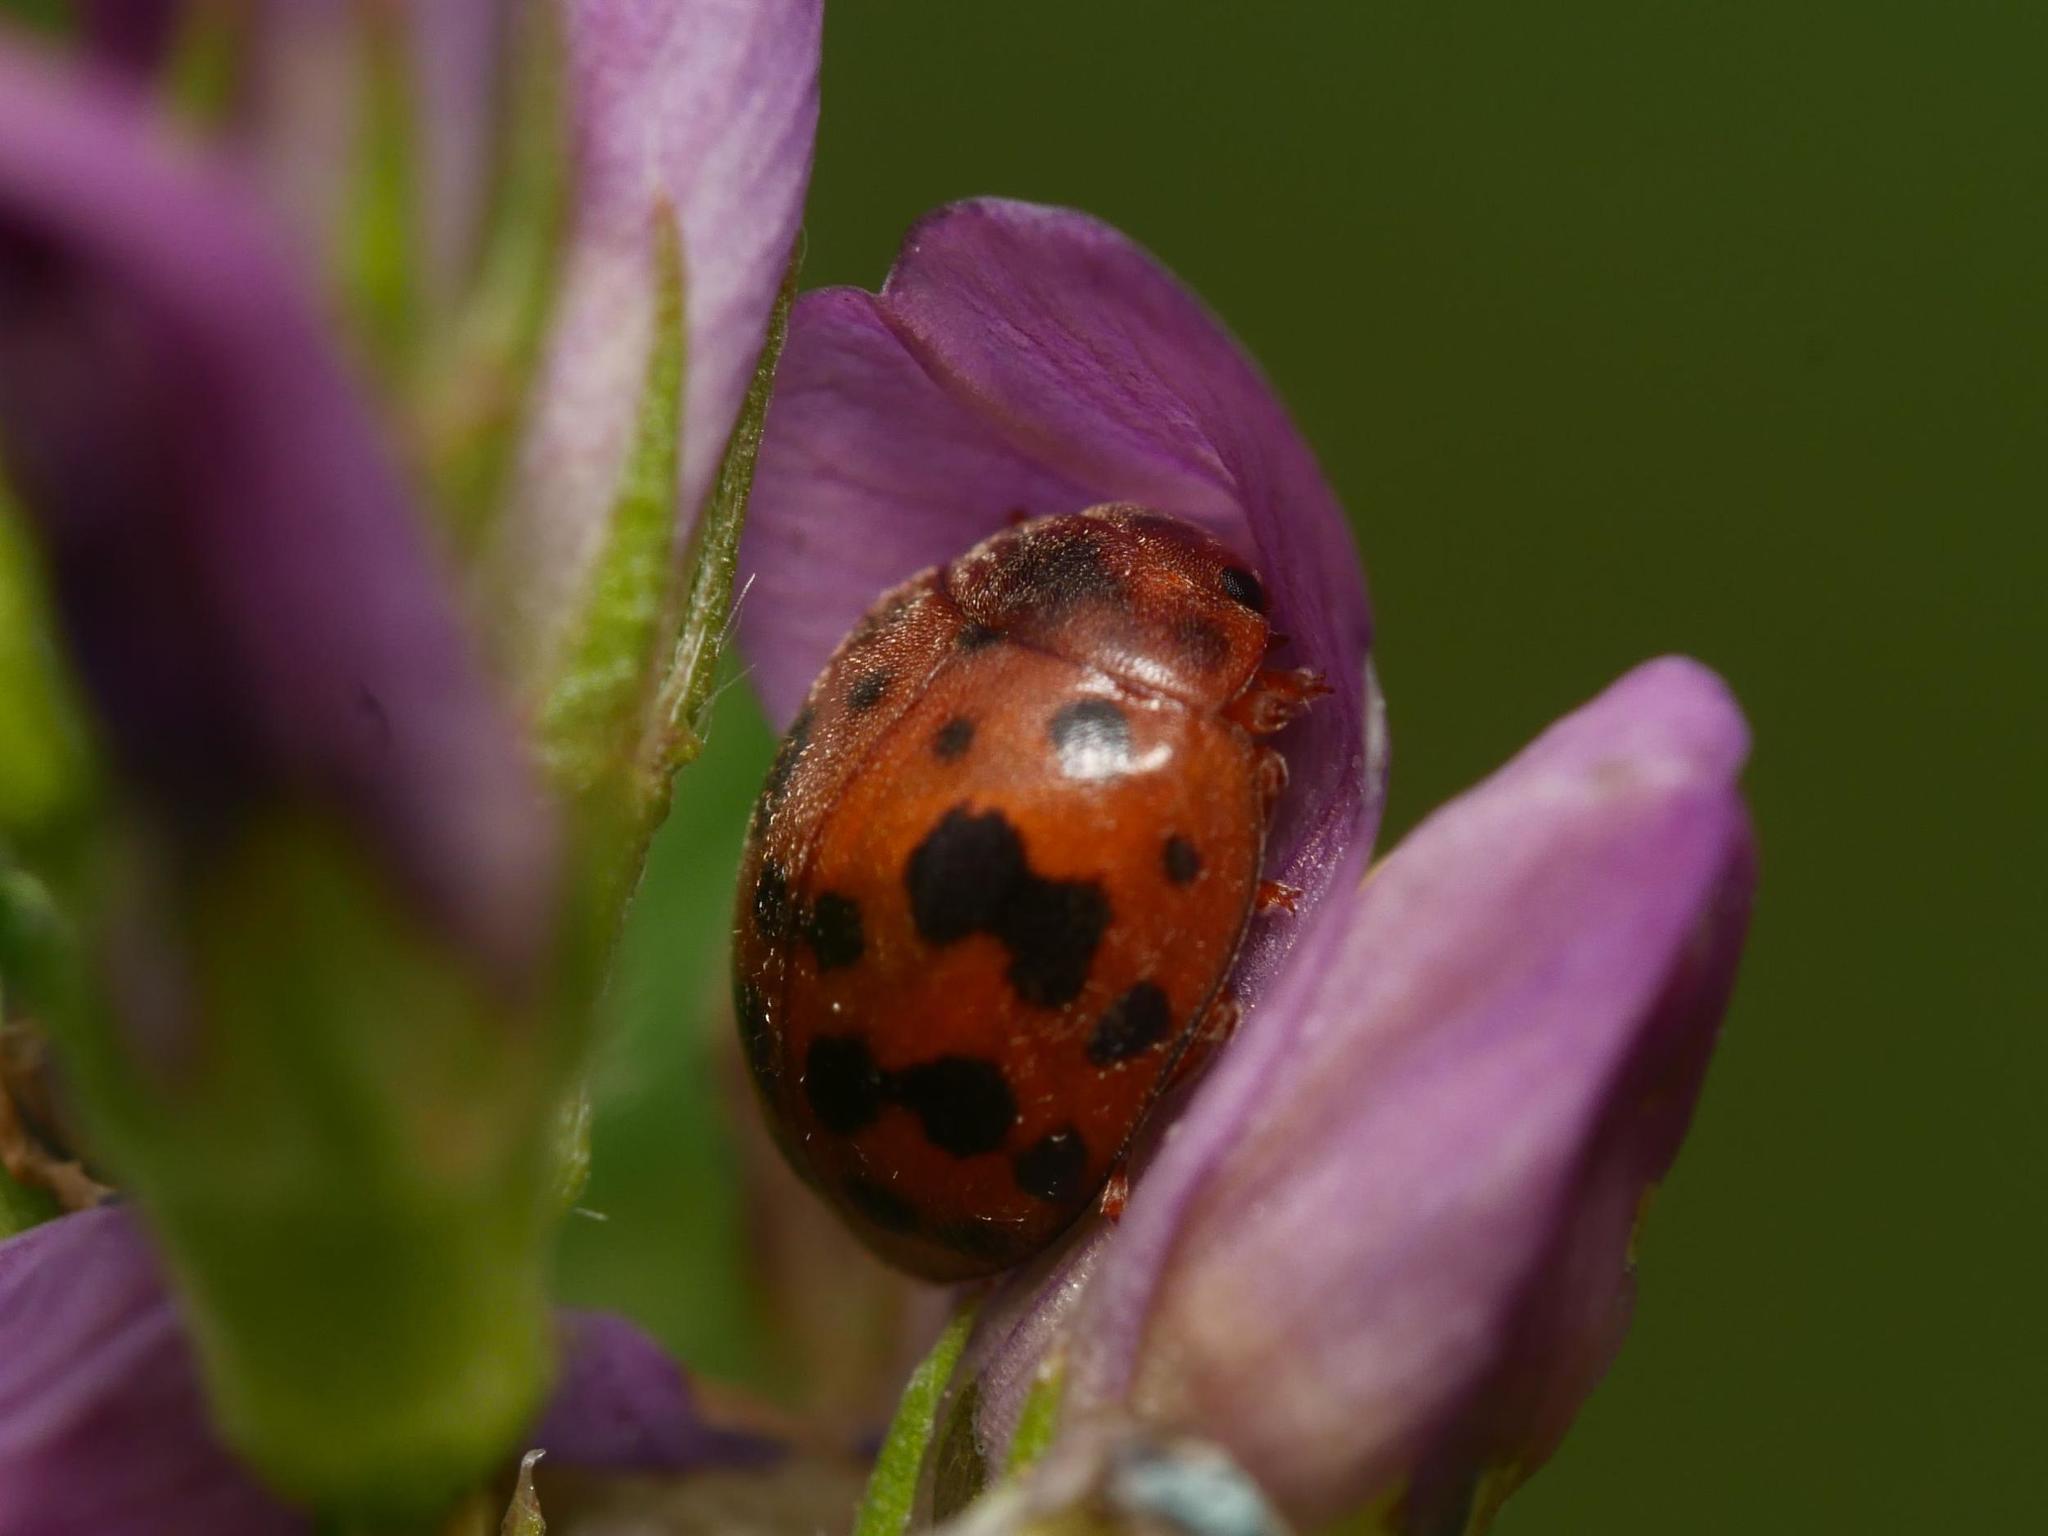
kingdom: Animalia
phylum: Arthropoda
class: Insecta
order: Coleoptera
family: Coccinellidae
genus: Subcoccinella
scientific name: Subcoccinella vigintiquatuorpunctata
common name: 24-spot ladybird
